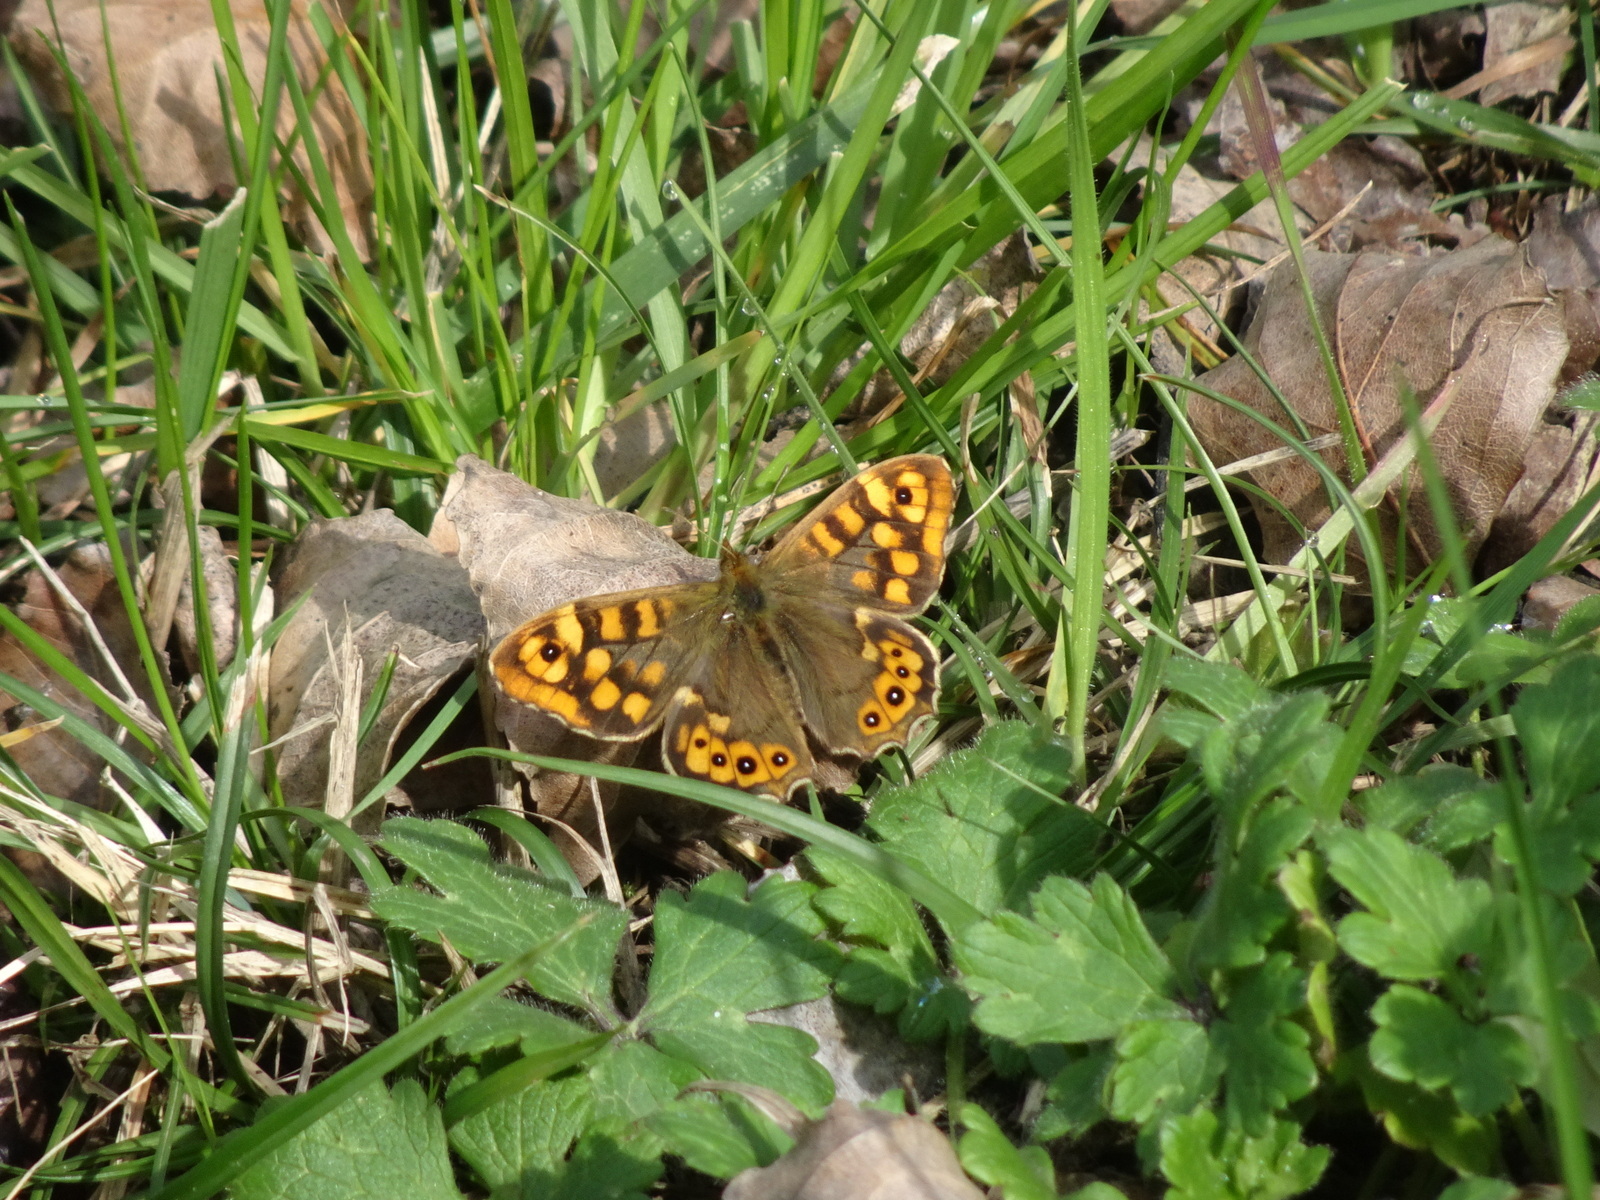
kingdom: Animalia
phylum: Arthropoda
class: Insecta
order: Lepidoptera
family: Nymphalidae
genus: Pararge
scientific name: Pararge aegeria
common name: Speckled wood
